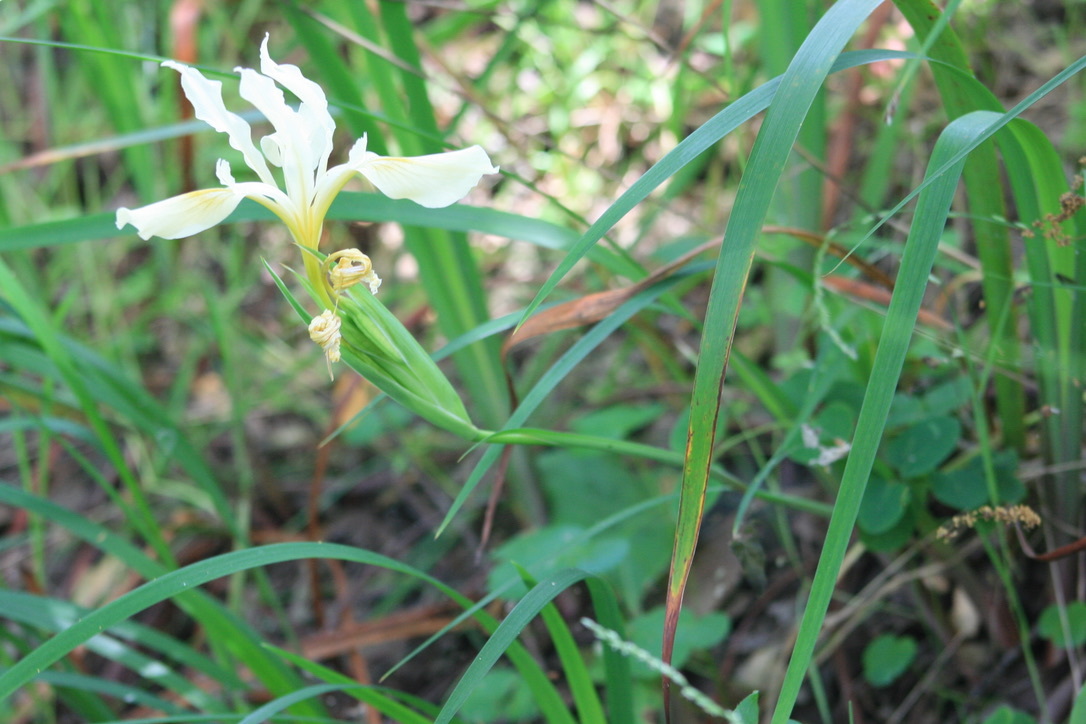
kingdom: Plantae
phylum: Tracheophyta
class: Liliopsida
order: Asparagales
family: Iridaceae
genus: Iris
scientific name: Iris douglasiana
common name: Marin iris
